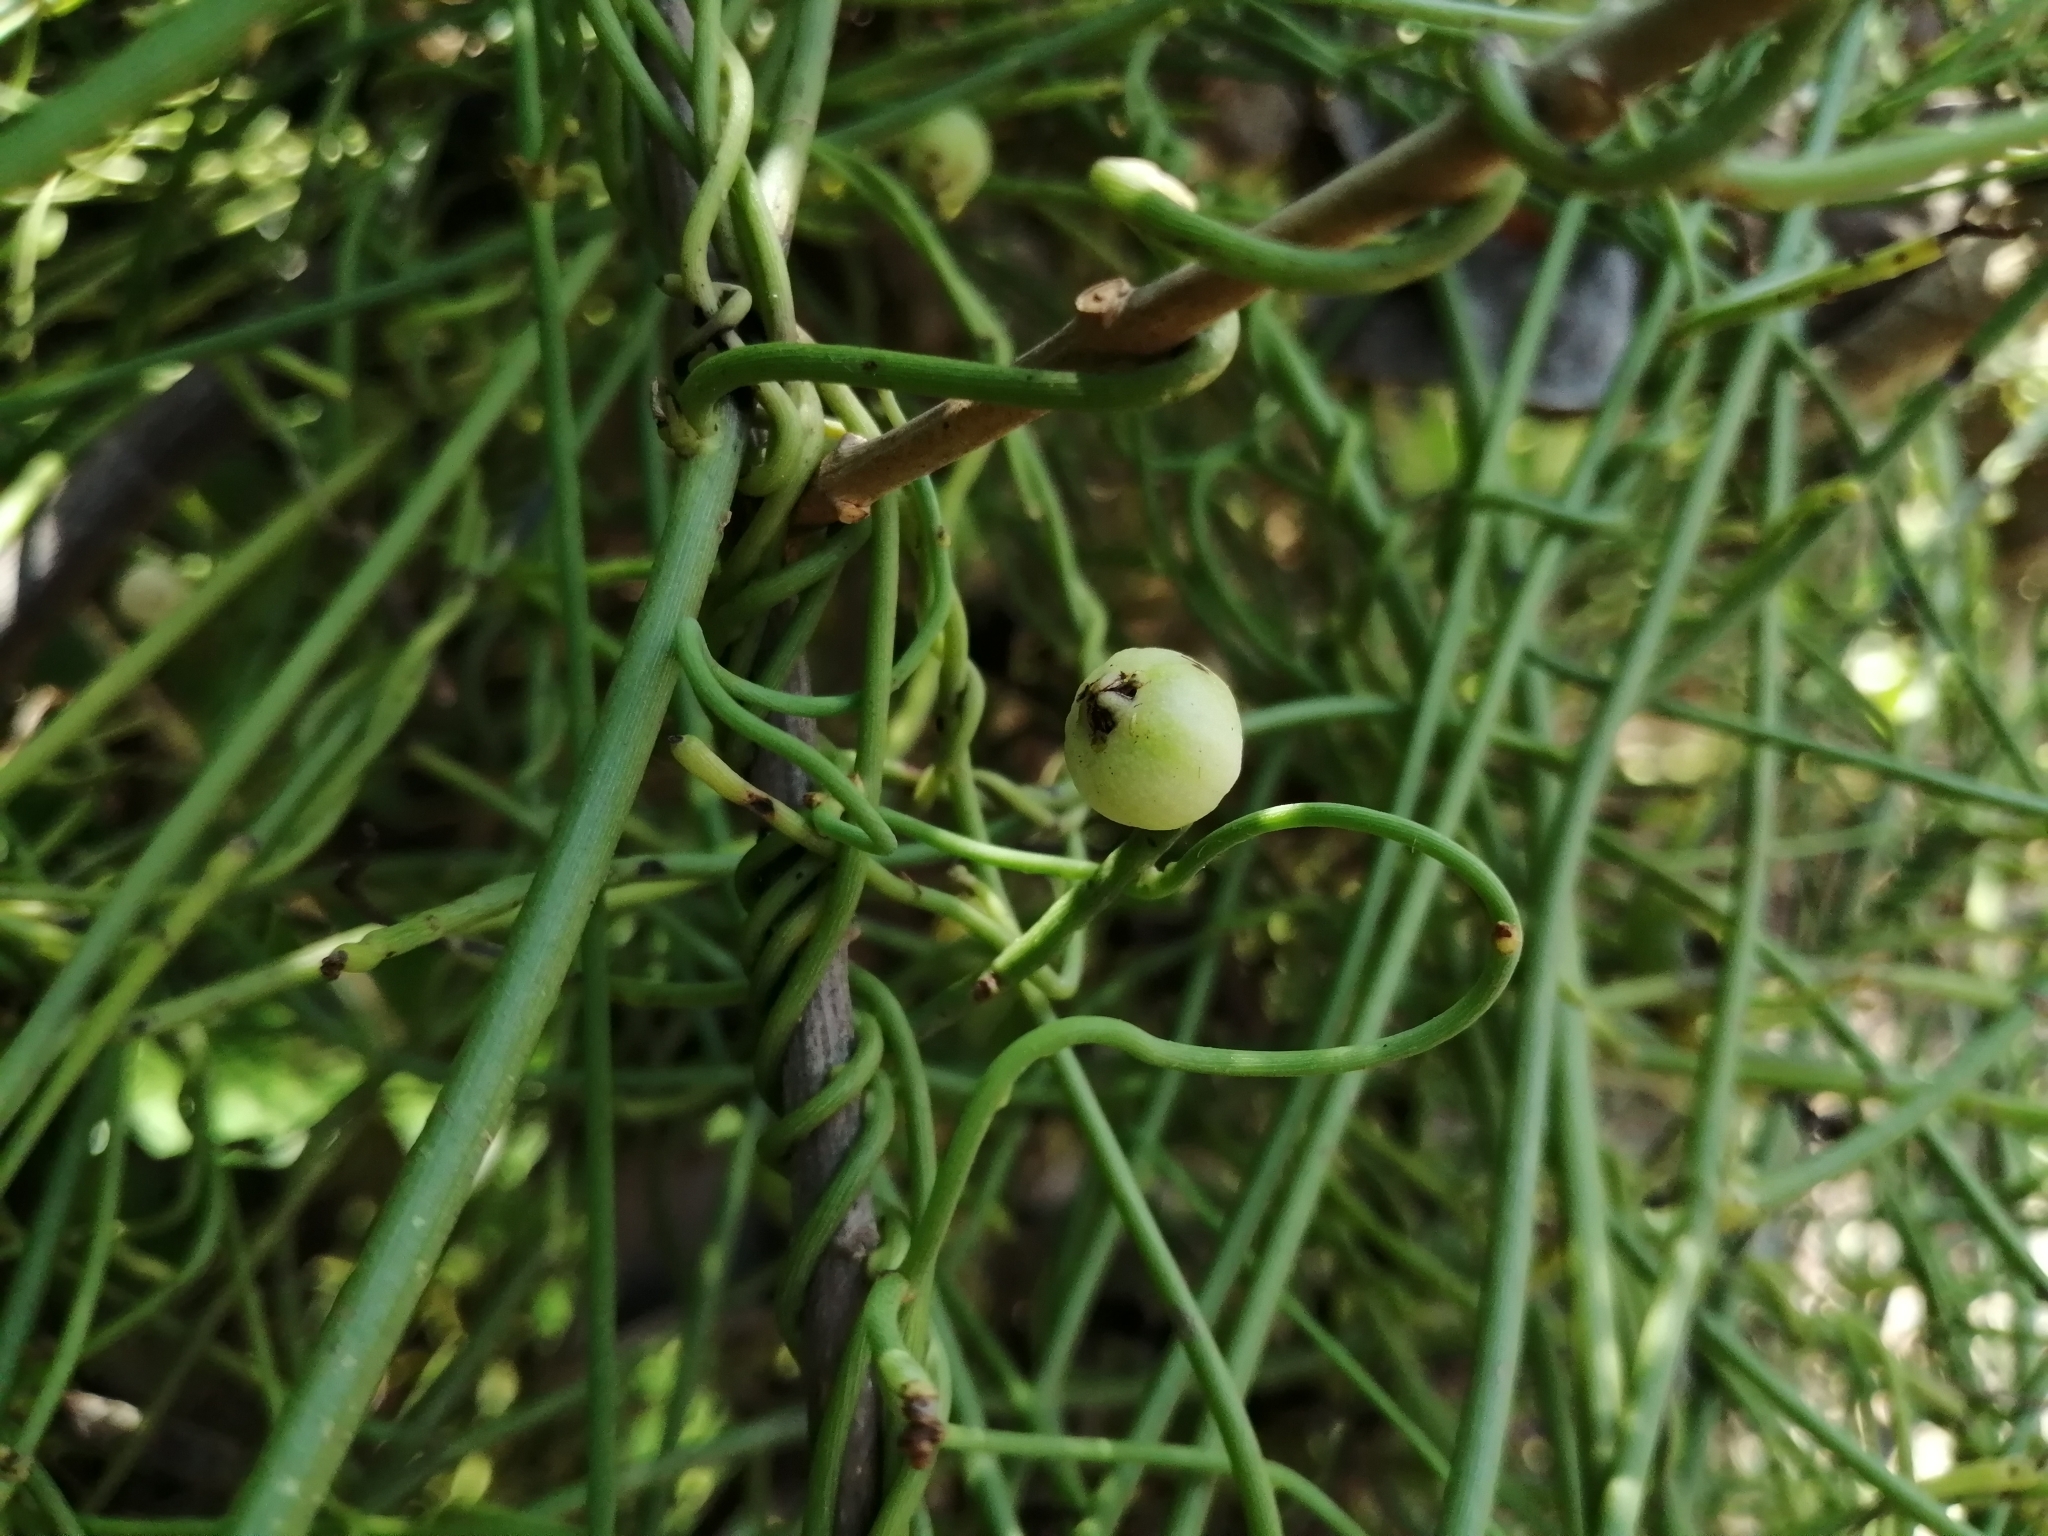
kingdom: Plantae
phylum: Tracheophyta
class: Magnoliopsida
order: Laurales
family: Lauraceae
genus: Cassytha
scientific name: Cassytha filiformis
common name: Dodder-laurel
